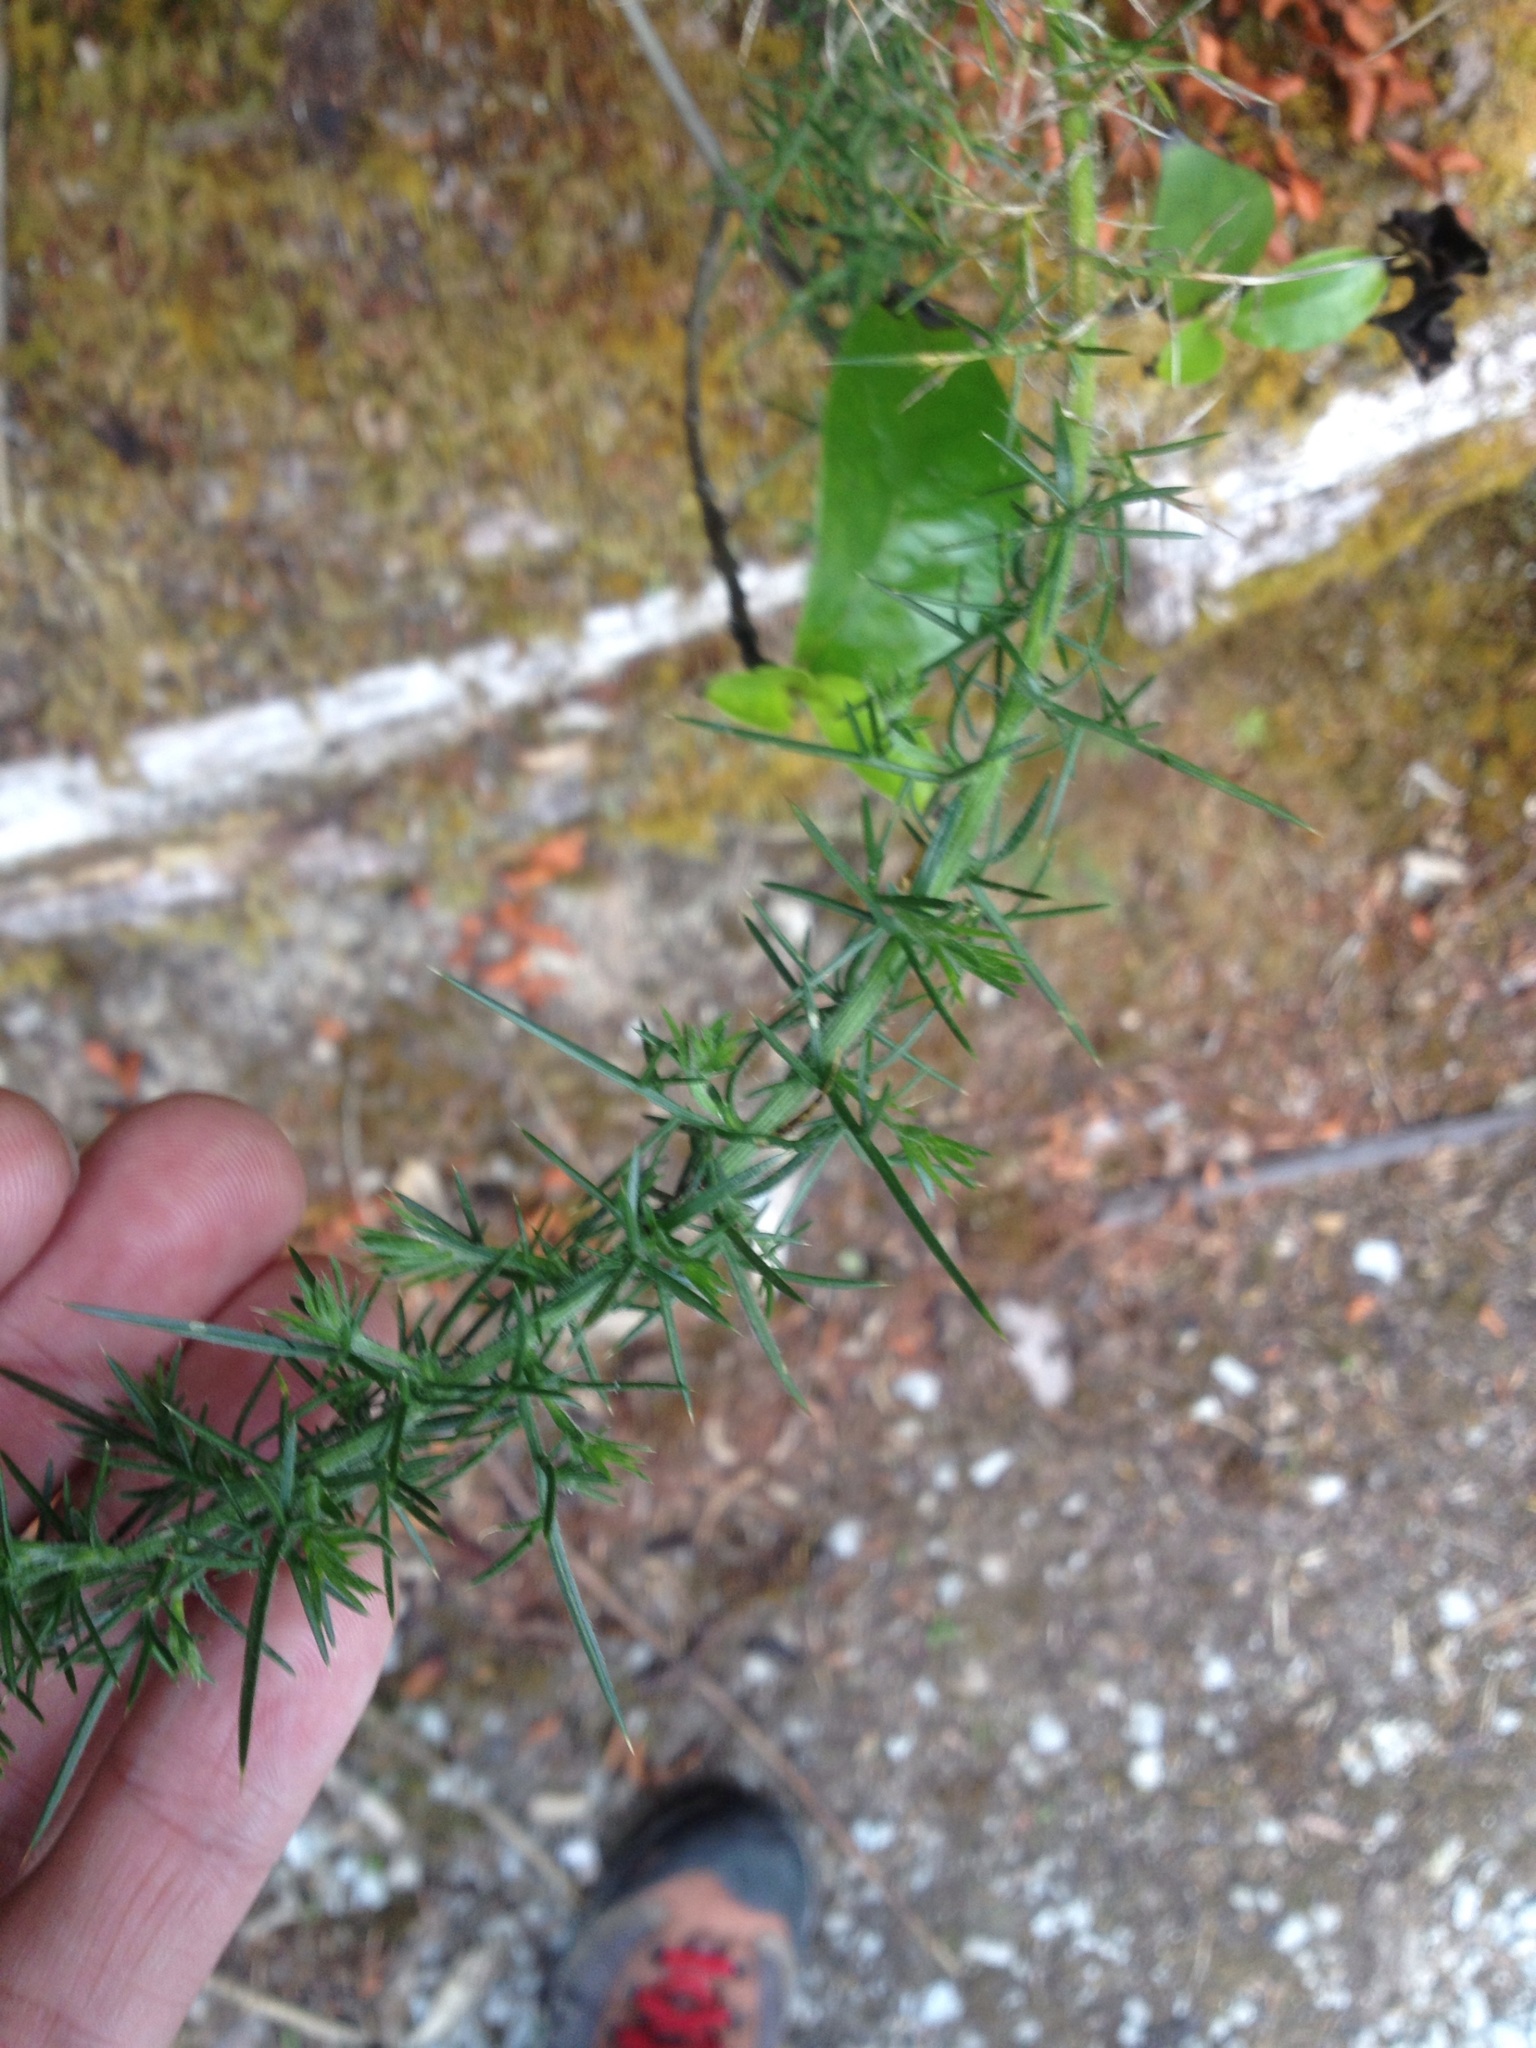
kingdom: Plantae
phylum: Tracheophyta
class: Magnoliopsida
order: Fabales
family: Fabaceae
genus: Ulex
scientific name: Ulex europaeus
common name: Common gorse
